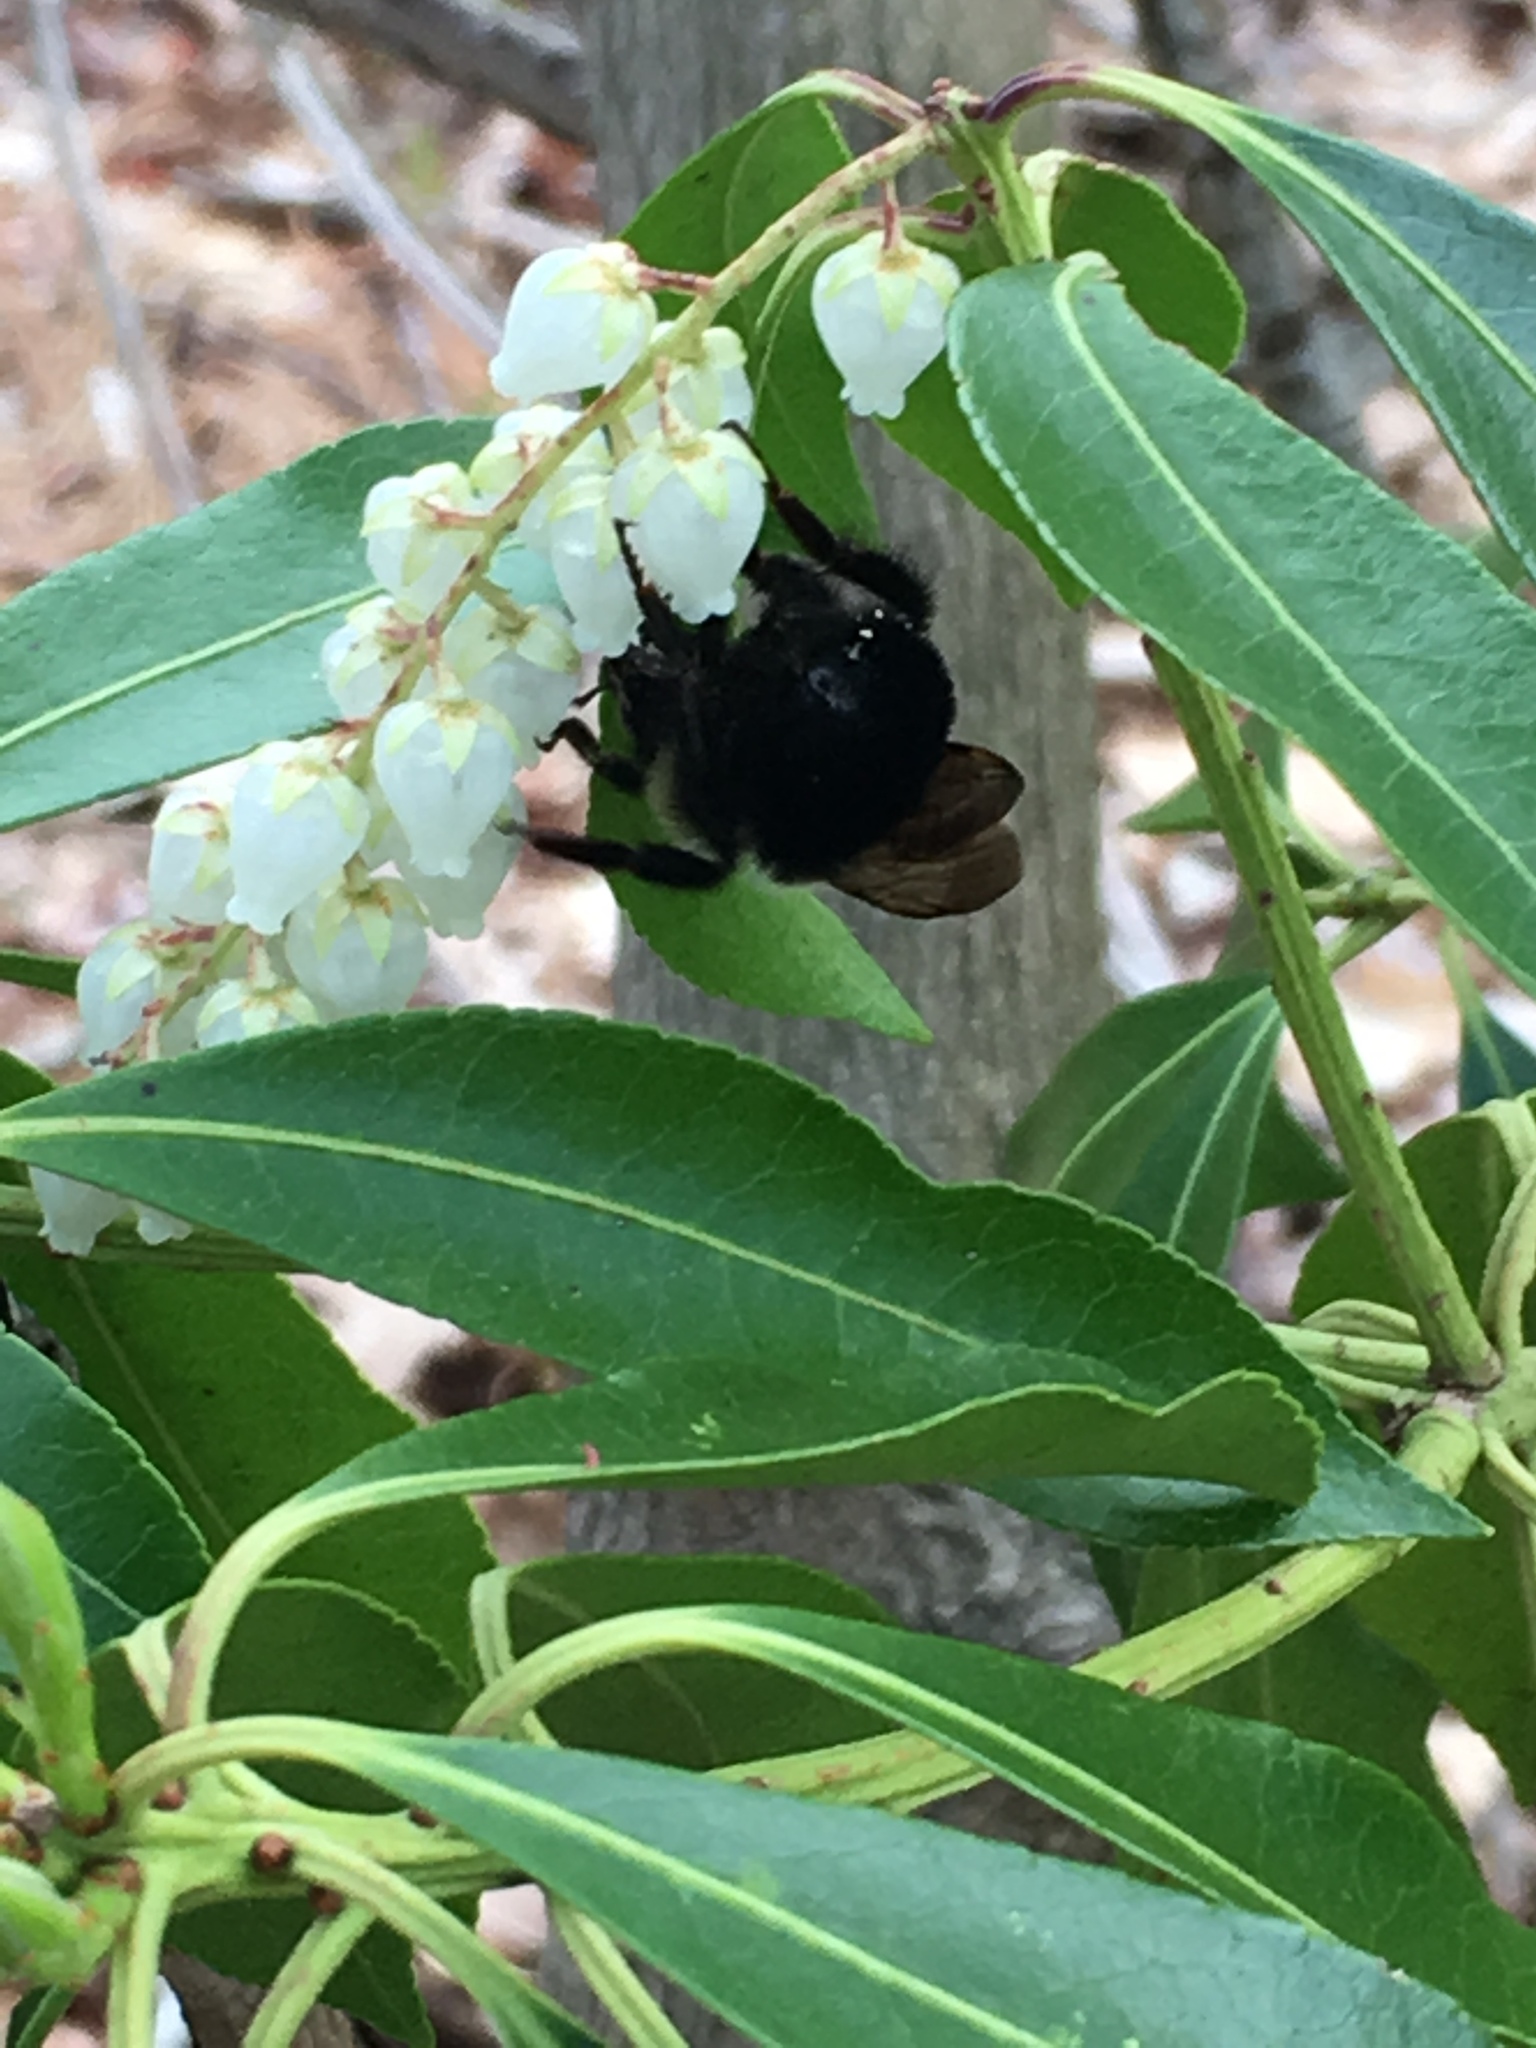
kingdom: Animalia
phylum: Arthropoda
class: Insecta
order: Hymenoptera
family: Apidae
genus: Bombus
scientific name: Bombus
